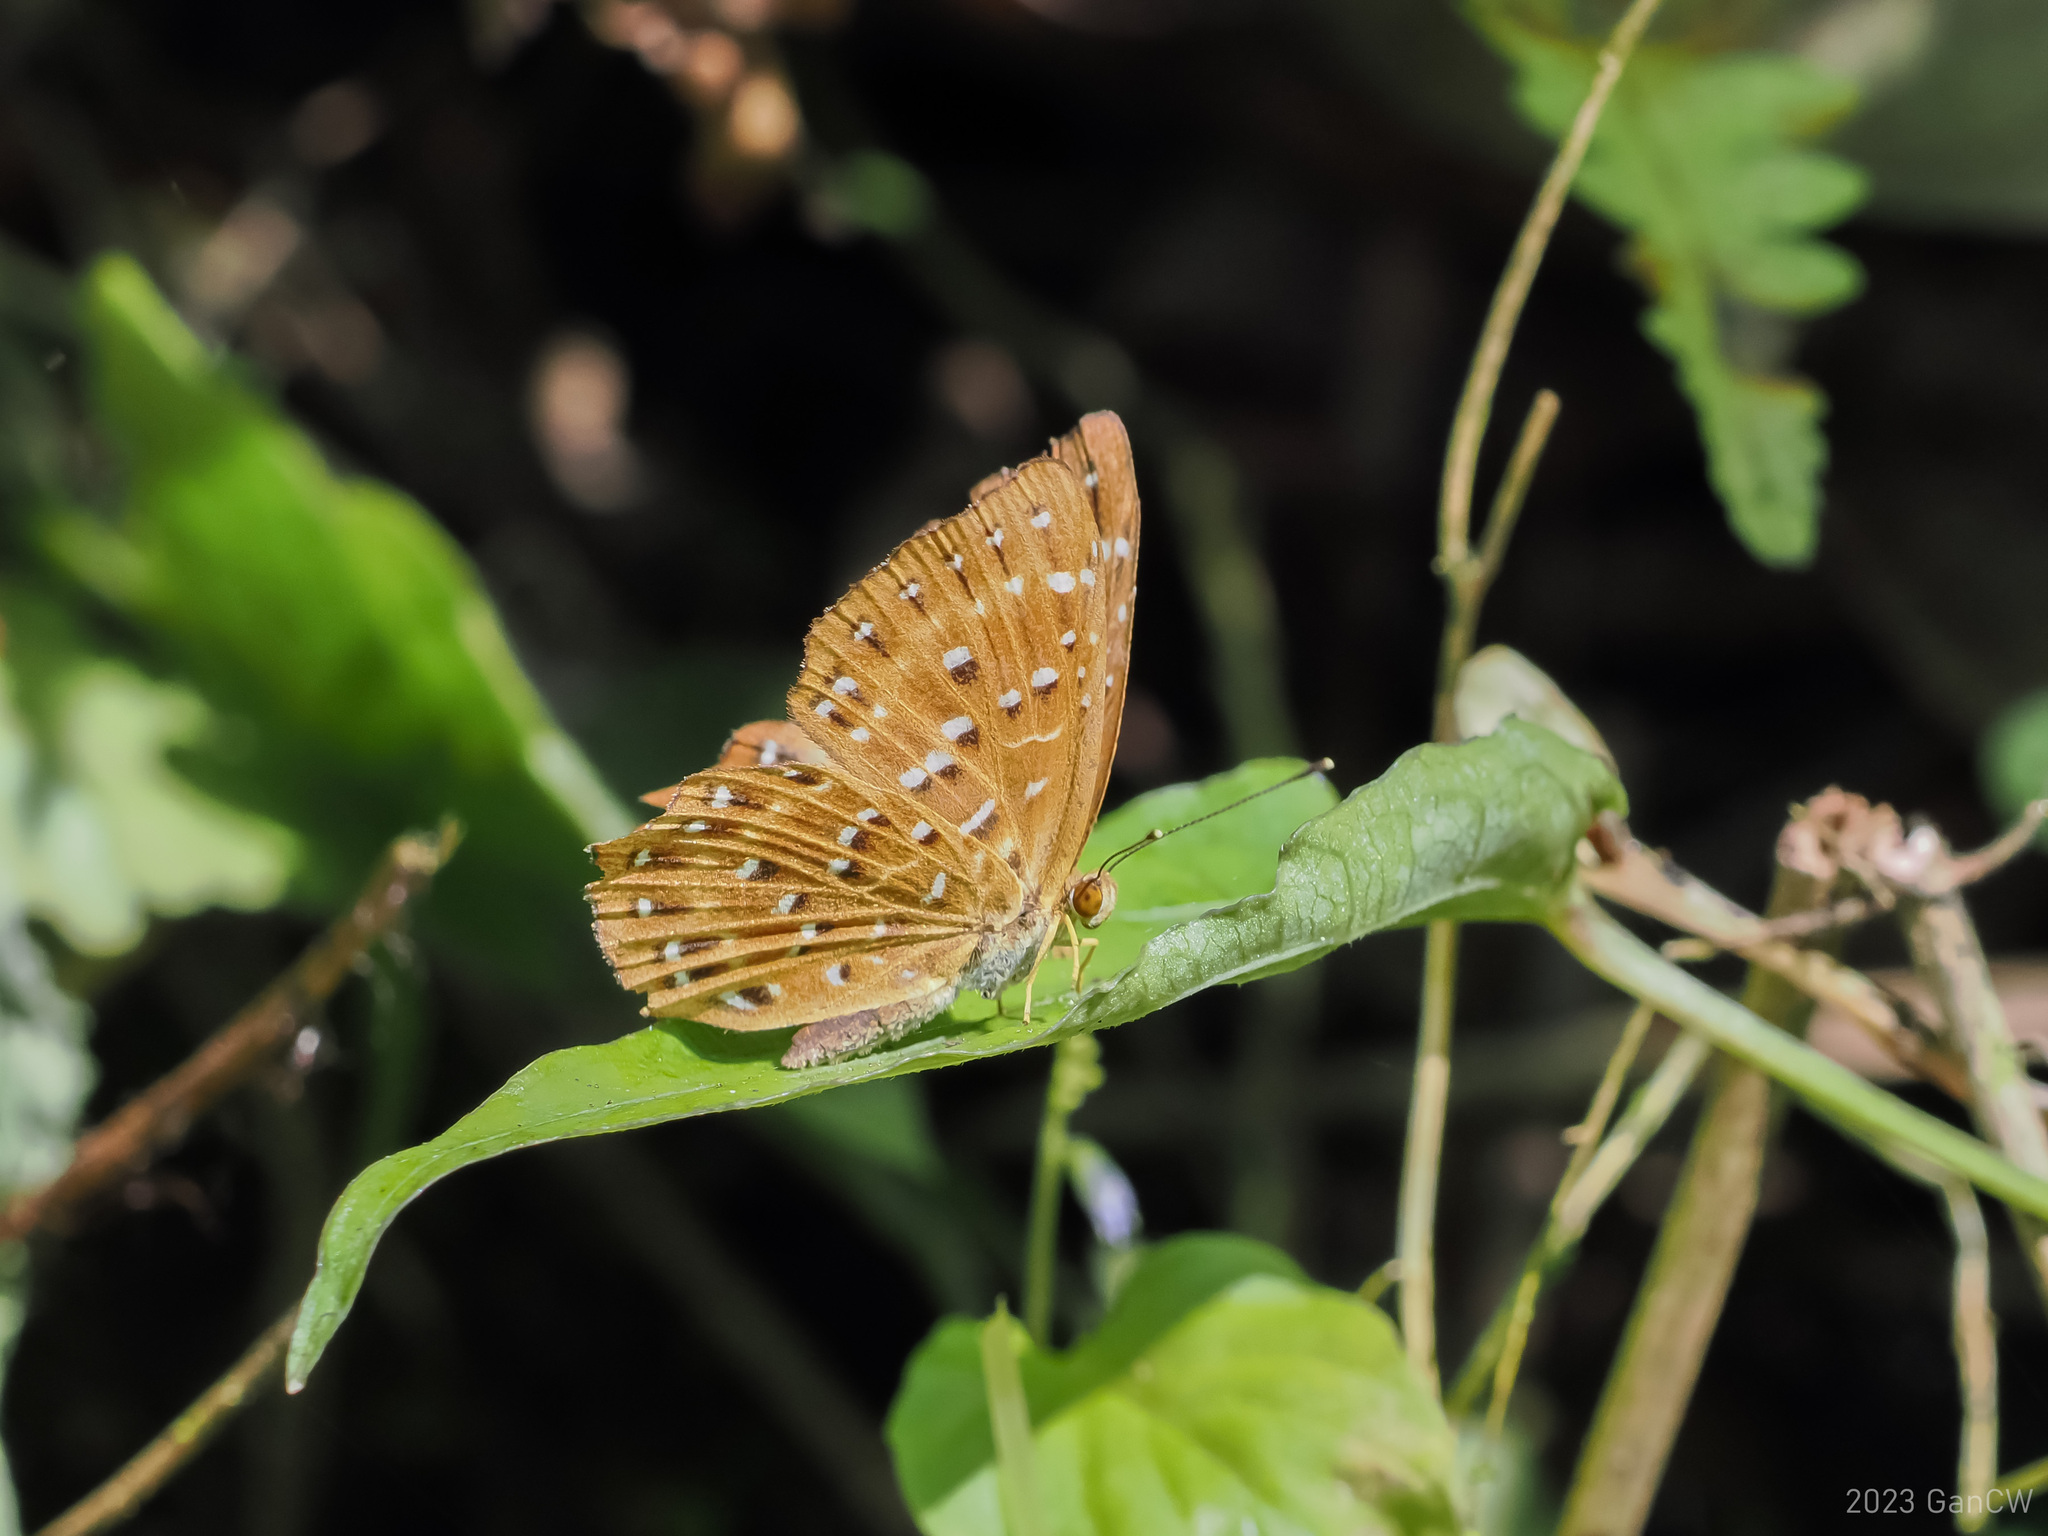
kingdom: Animalia
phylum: Arthropoda
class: Insecta
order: Lepidoptera
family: Riodinidae
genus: Zemeros
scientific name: Zemeros flegyas
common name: Punchinello
